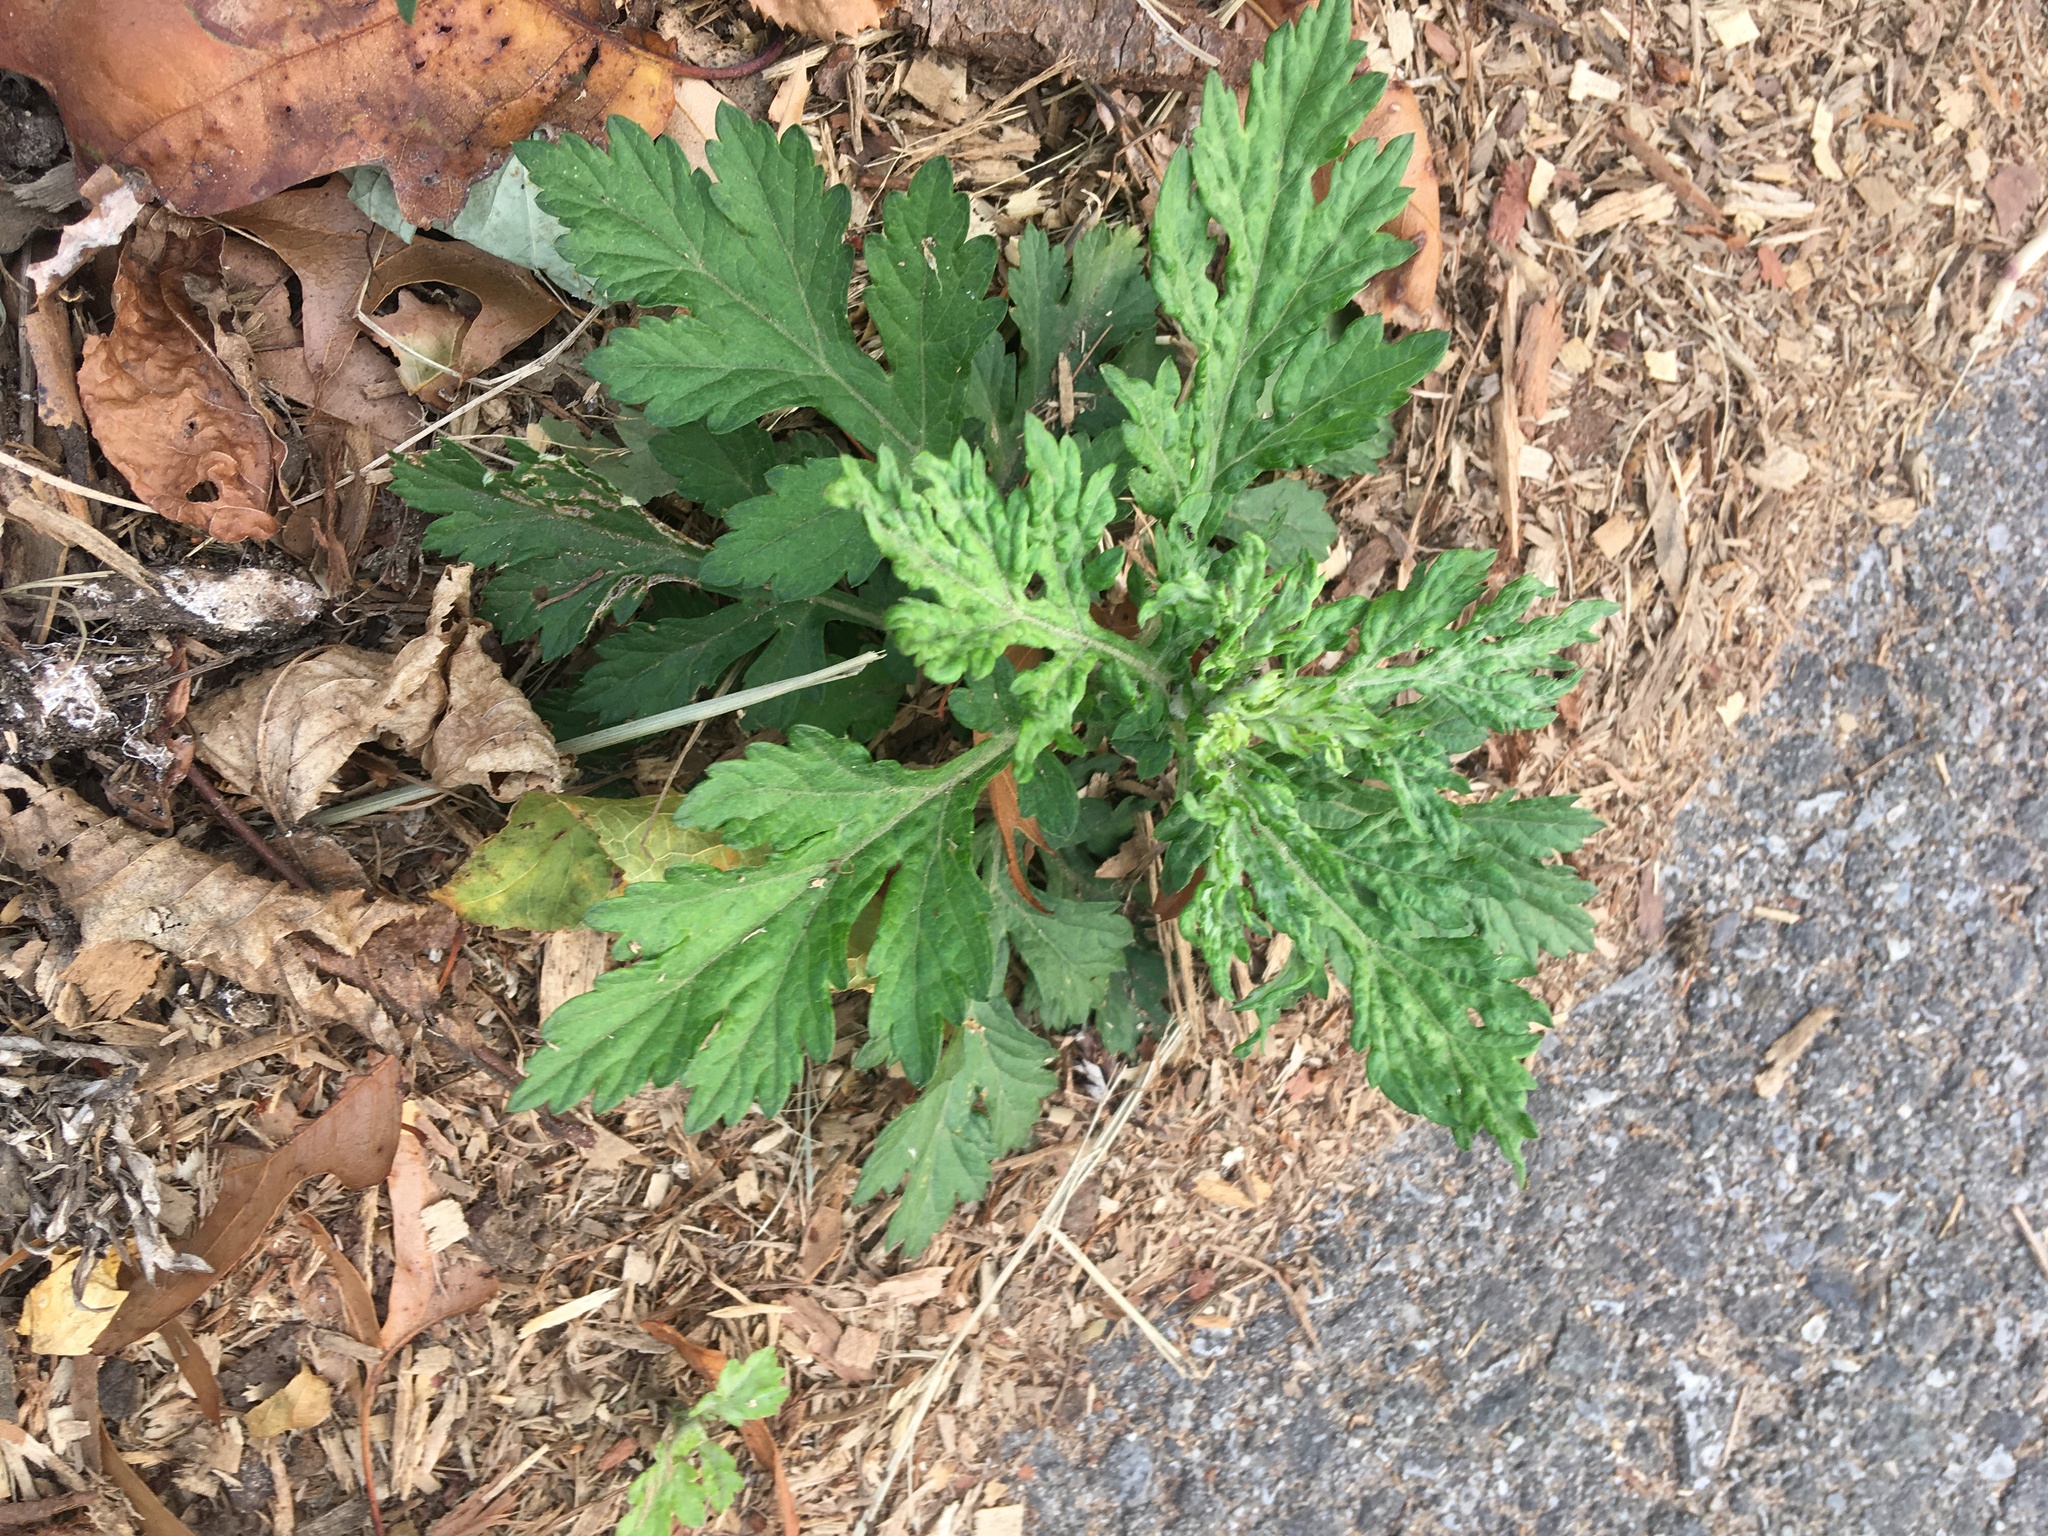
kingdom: Plantae
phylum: Tracheophyta
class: Magnoliopsida
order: Asterales
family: Asteraceae
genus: Artemisia
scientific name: Artemisia vulgaris
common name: Mugwort
